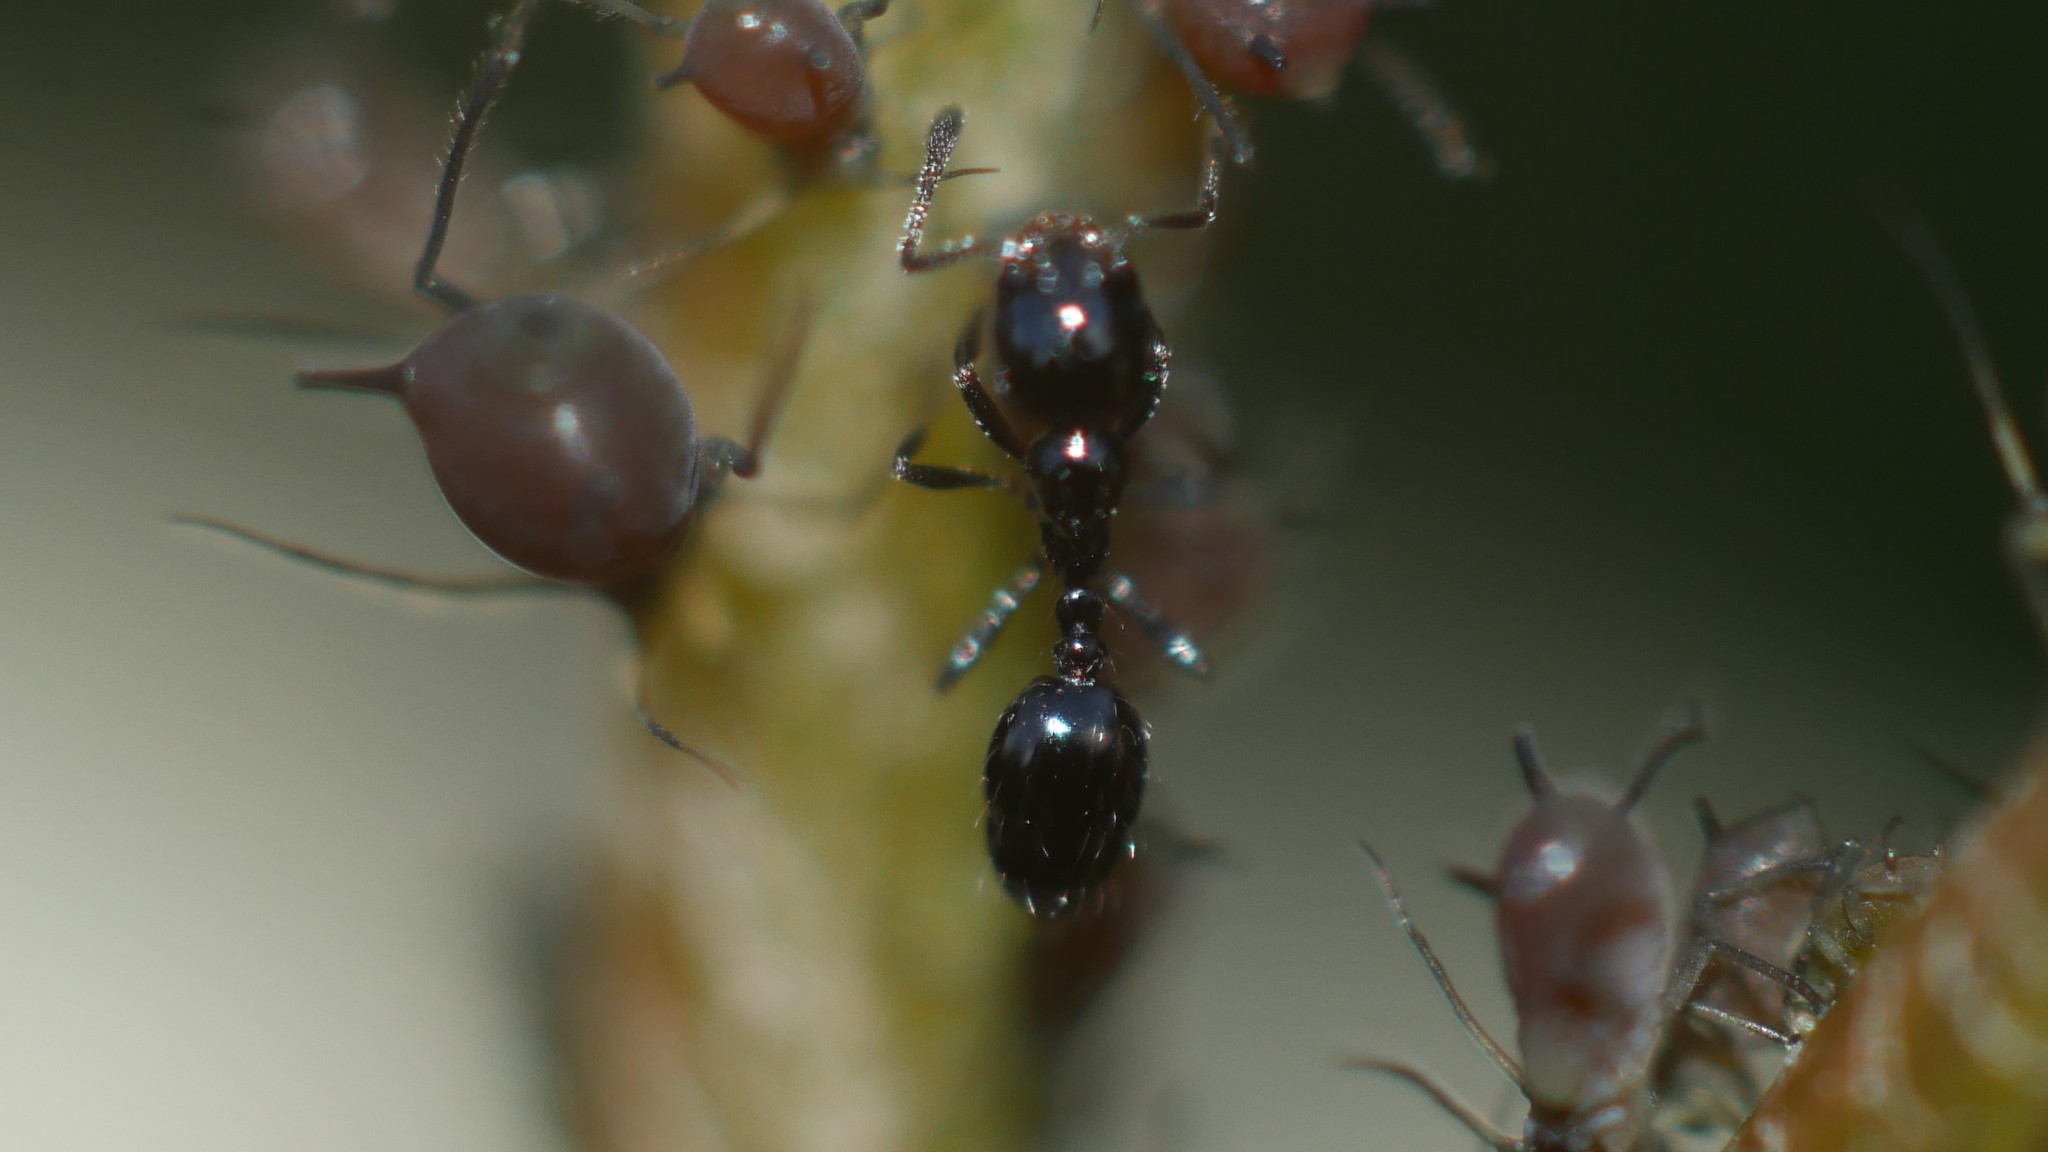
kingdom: Animalia
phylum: Arthropoda
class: Insecta
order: Hymenoptera
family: Formicidae
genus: Monomorium
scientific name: Monomorium minimum
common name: Little black ant
